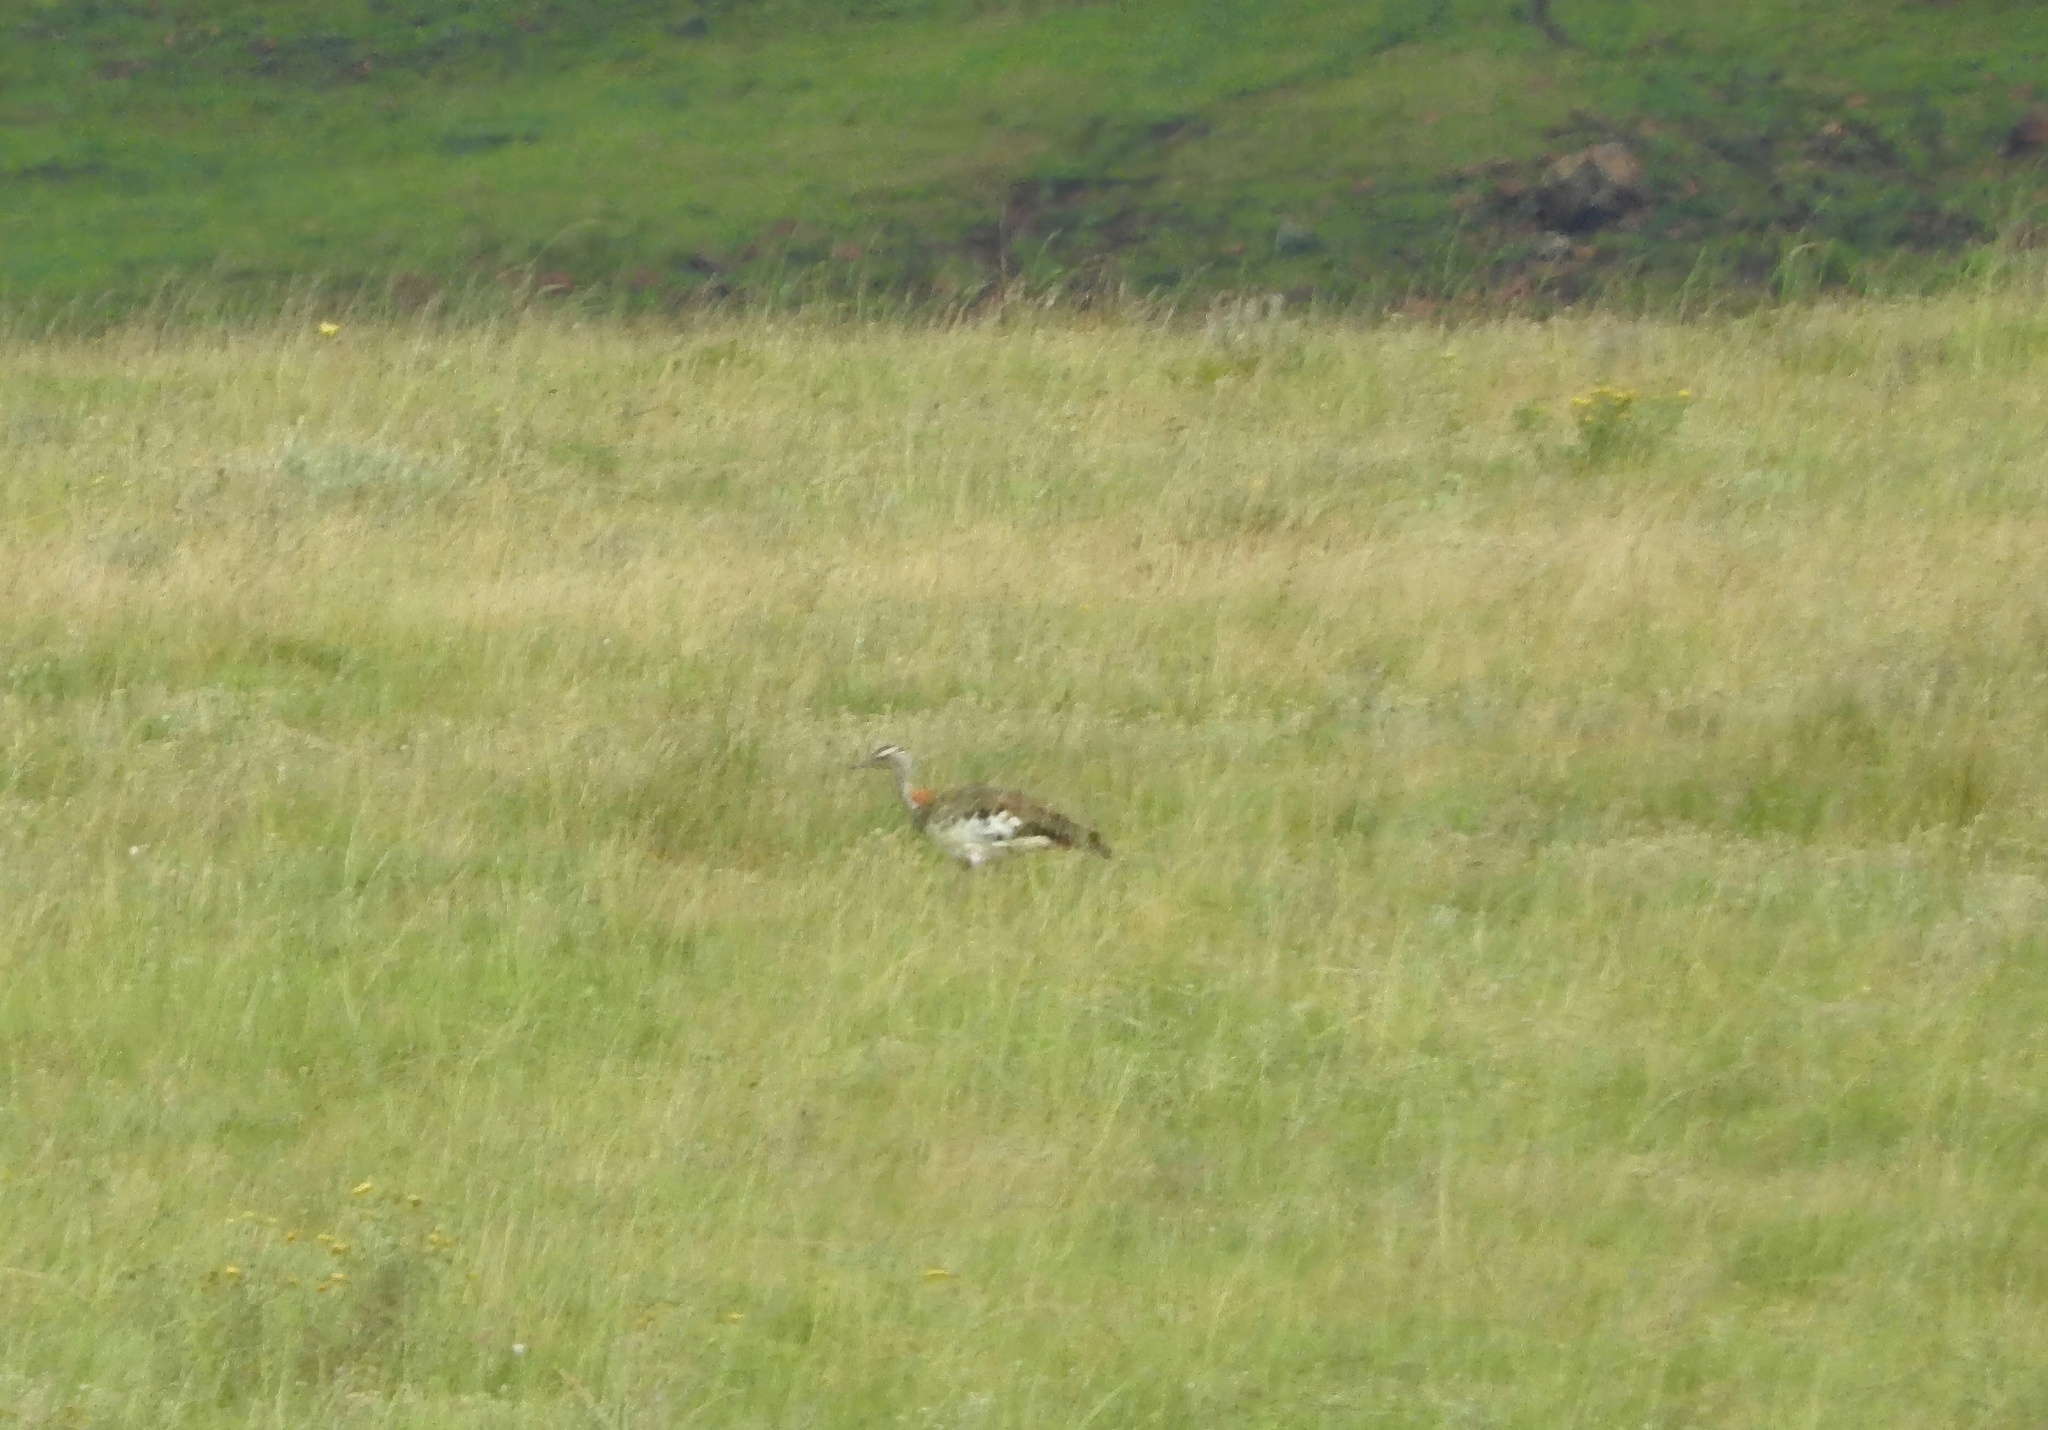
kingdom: Animalia
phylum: Chordata
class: Aves
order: Otidiformes
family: Otididae
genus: Neotis
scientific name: Neotis denhami
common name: Denham's bustard
